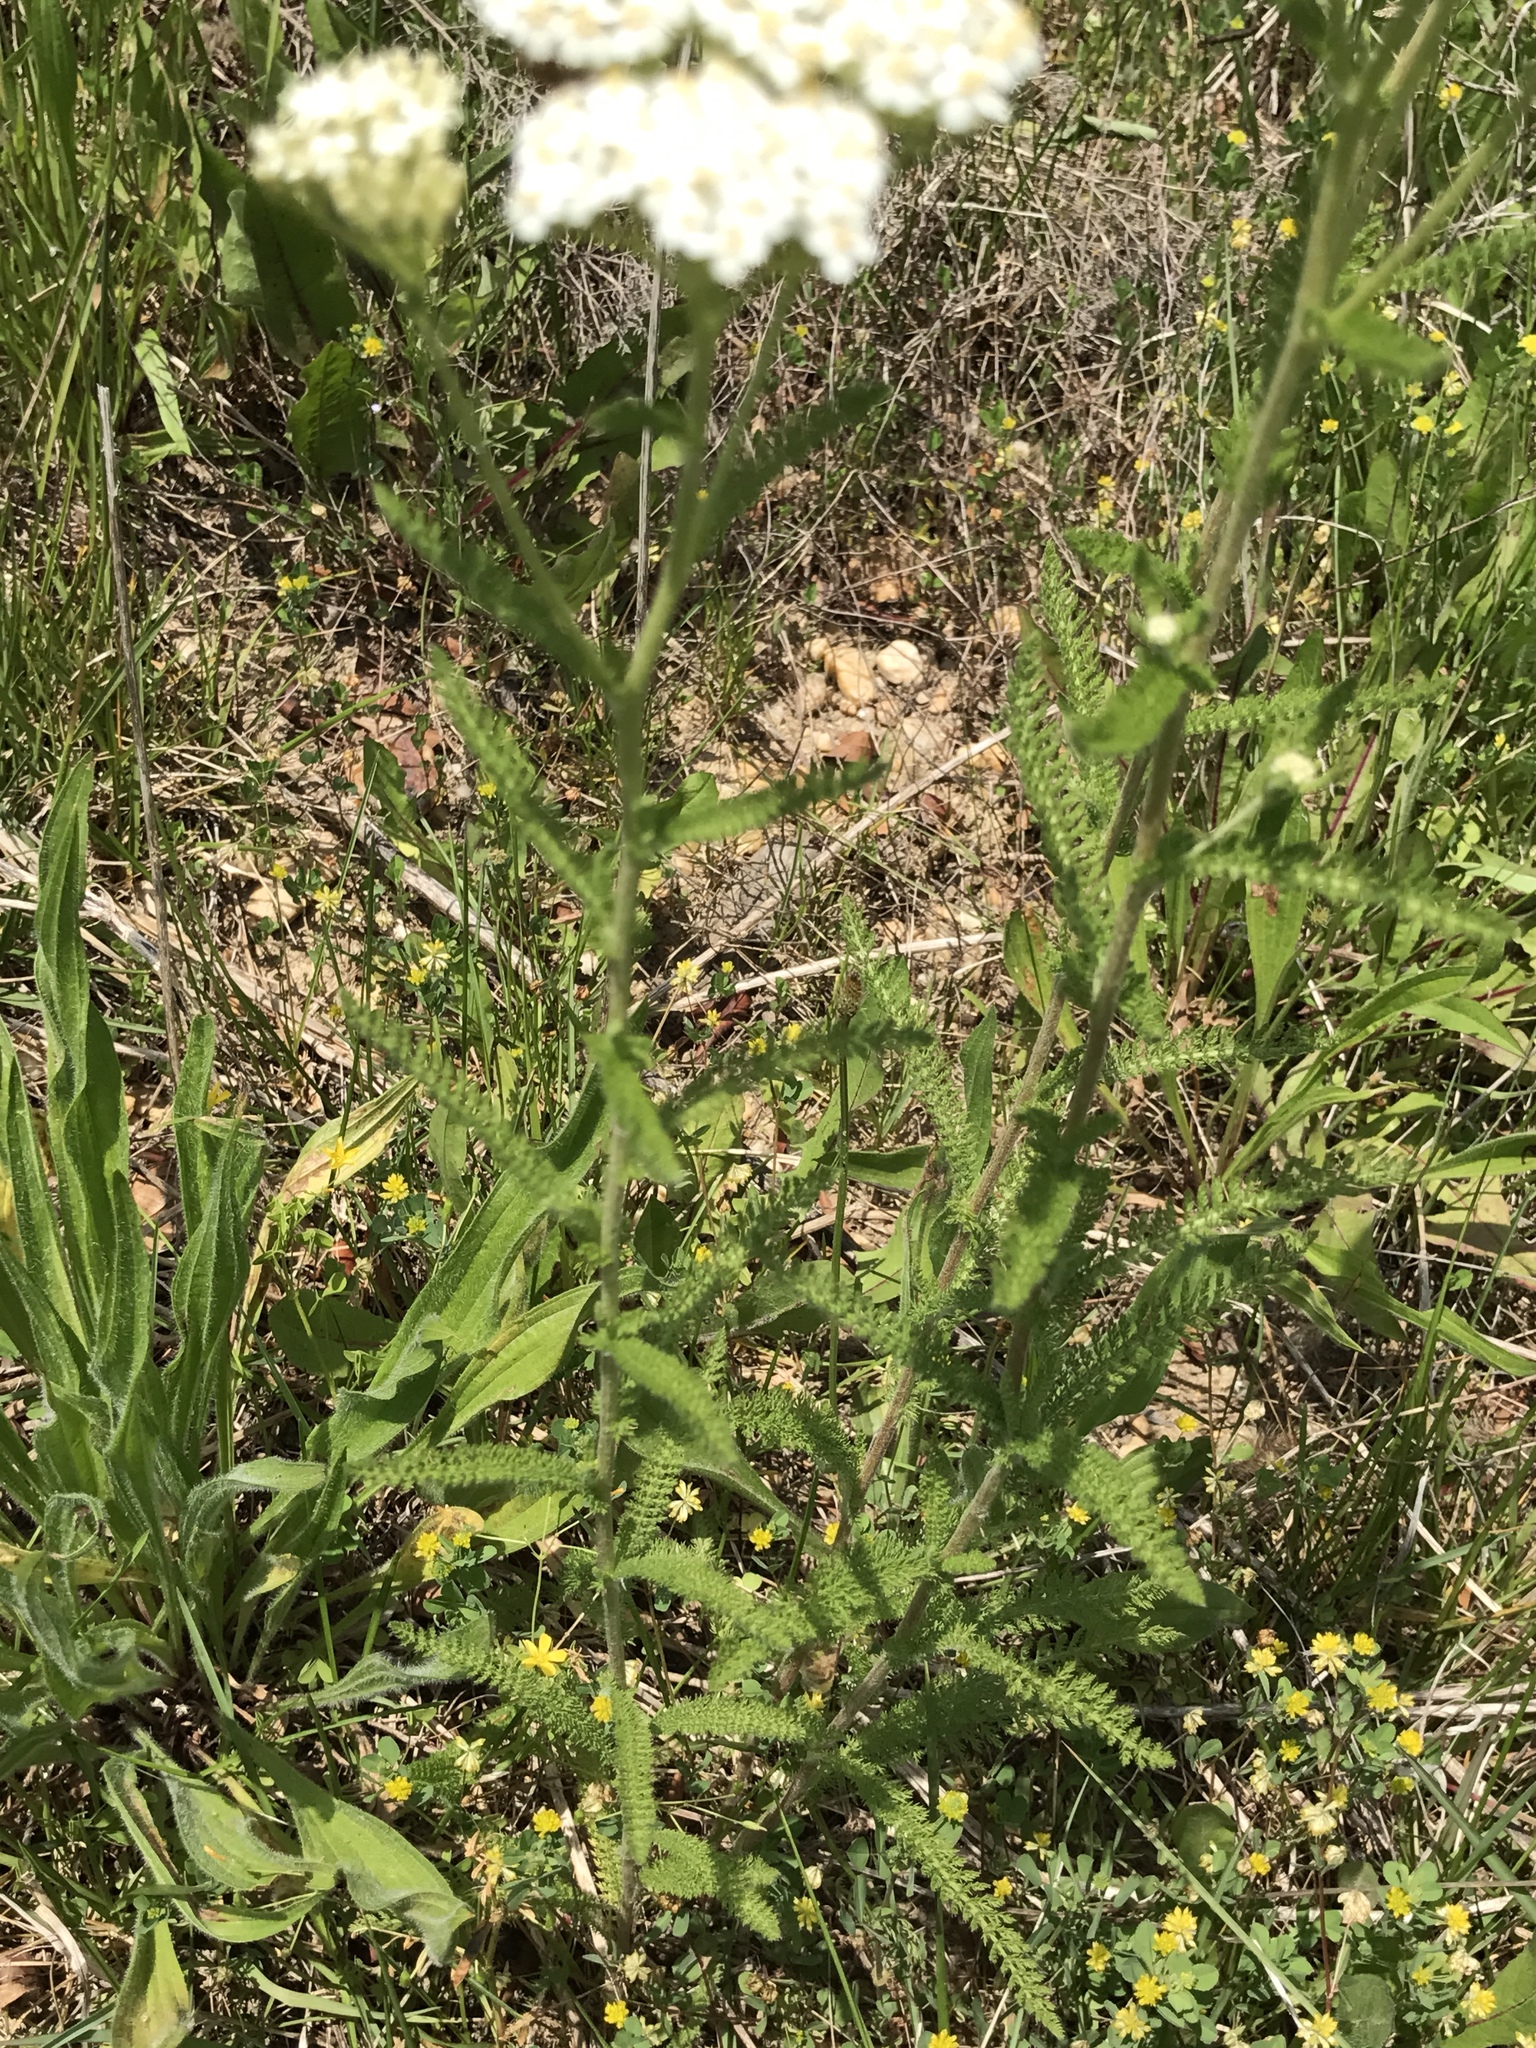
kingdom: Plantae
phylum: Tracheophyta
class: Magnoliopsida
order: Asterales
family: Asteraceae
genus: Achillea
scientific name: Achillea millefolium
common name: Yarrow
